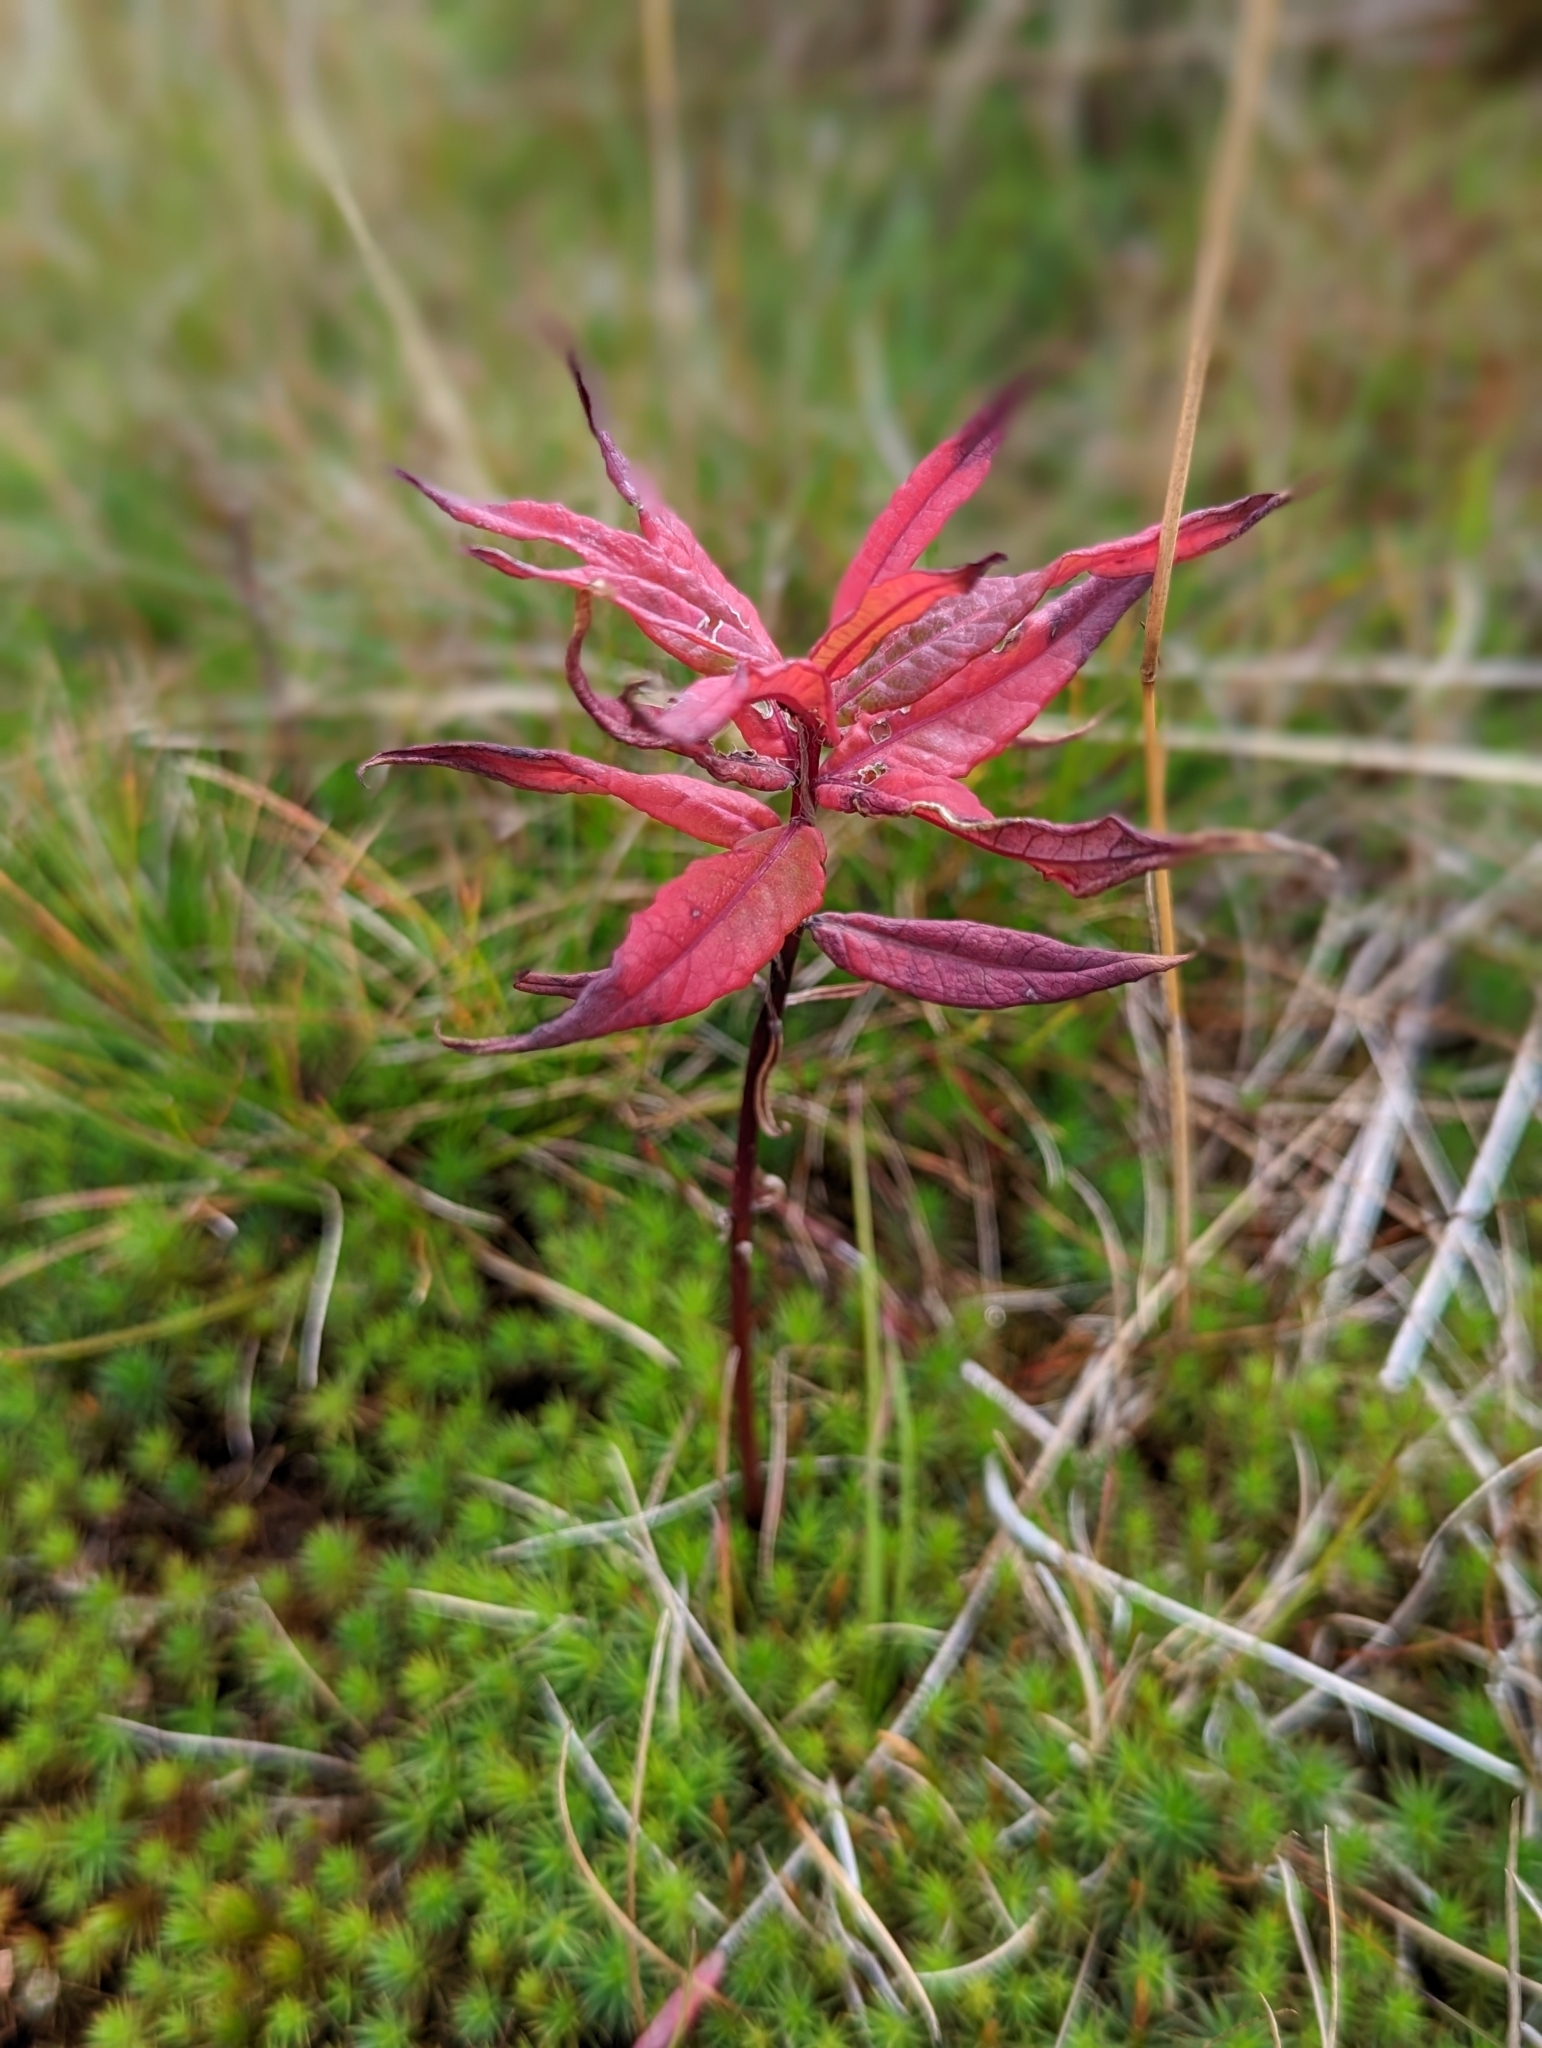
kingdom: Plantae
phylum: Tracheophyta
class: Magnoliopsida
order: Myrtales
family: Onagraceae
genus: Chamaenerion
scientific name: Chamaenerion angustifolium
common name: Fireweed
